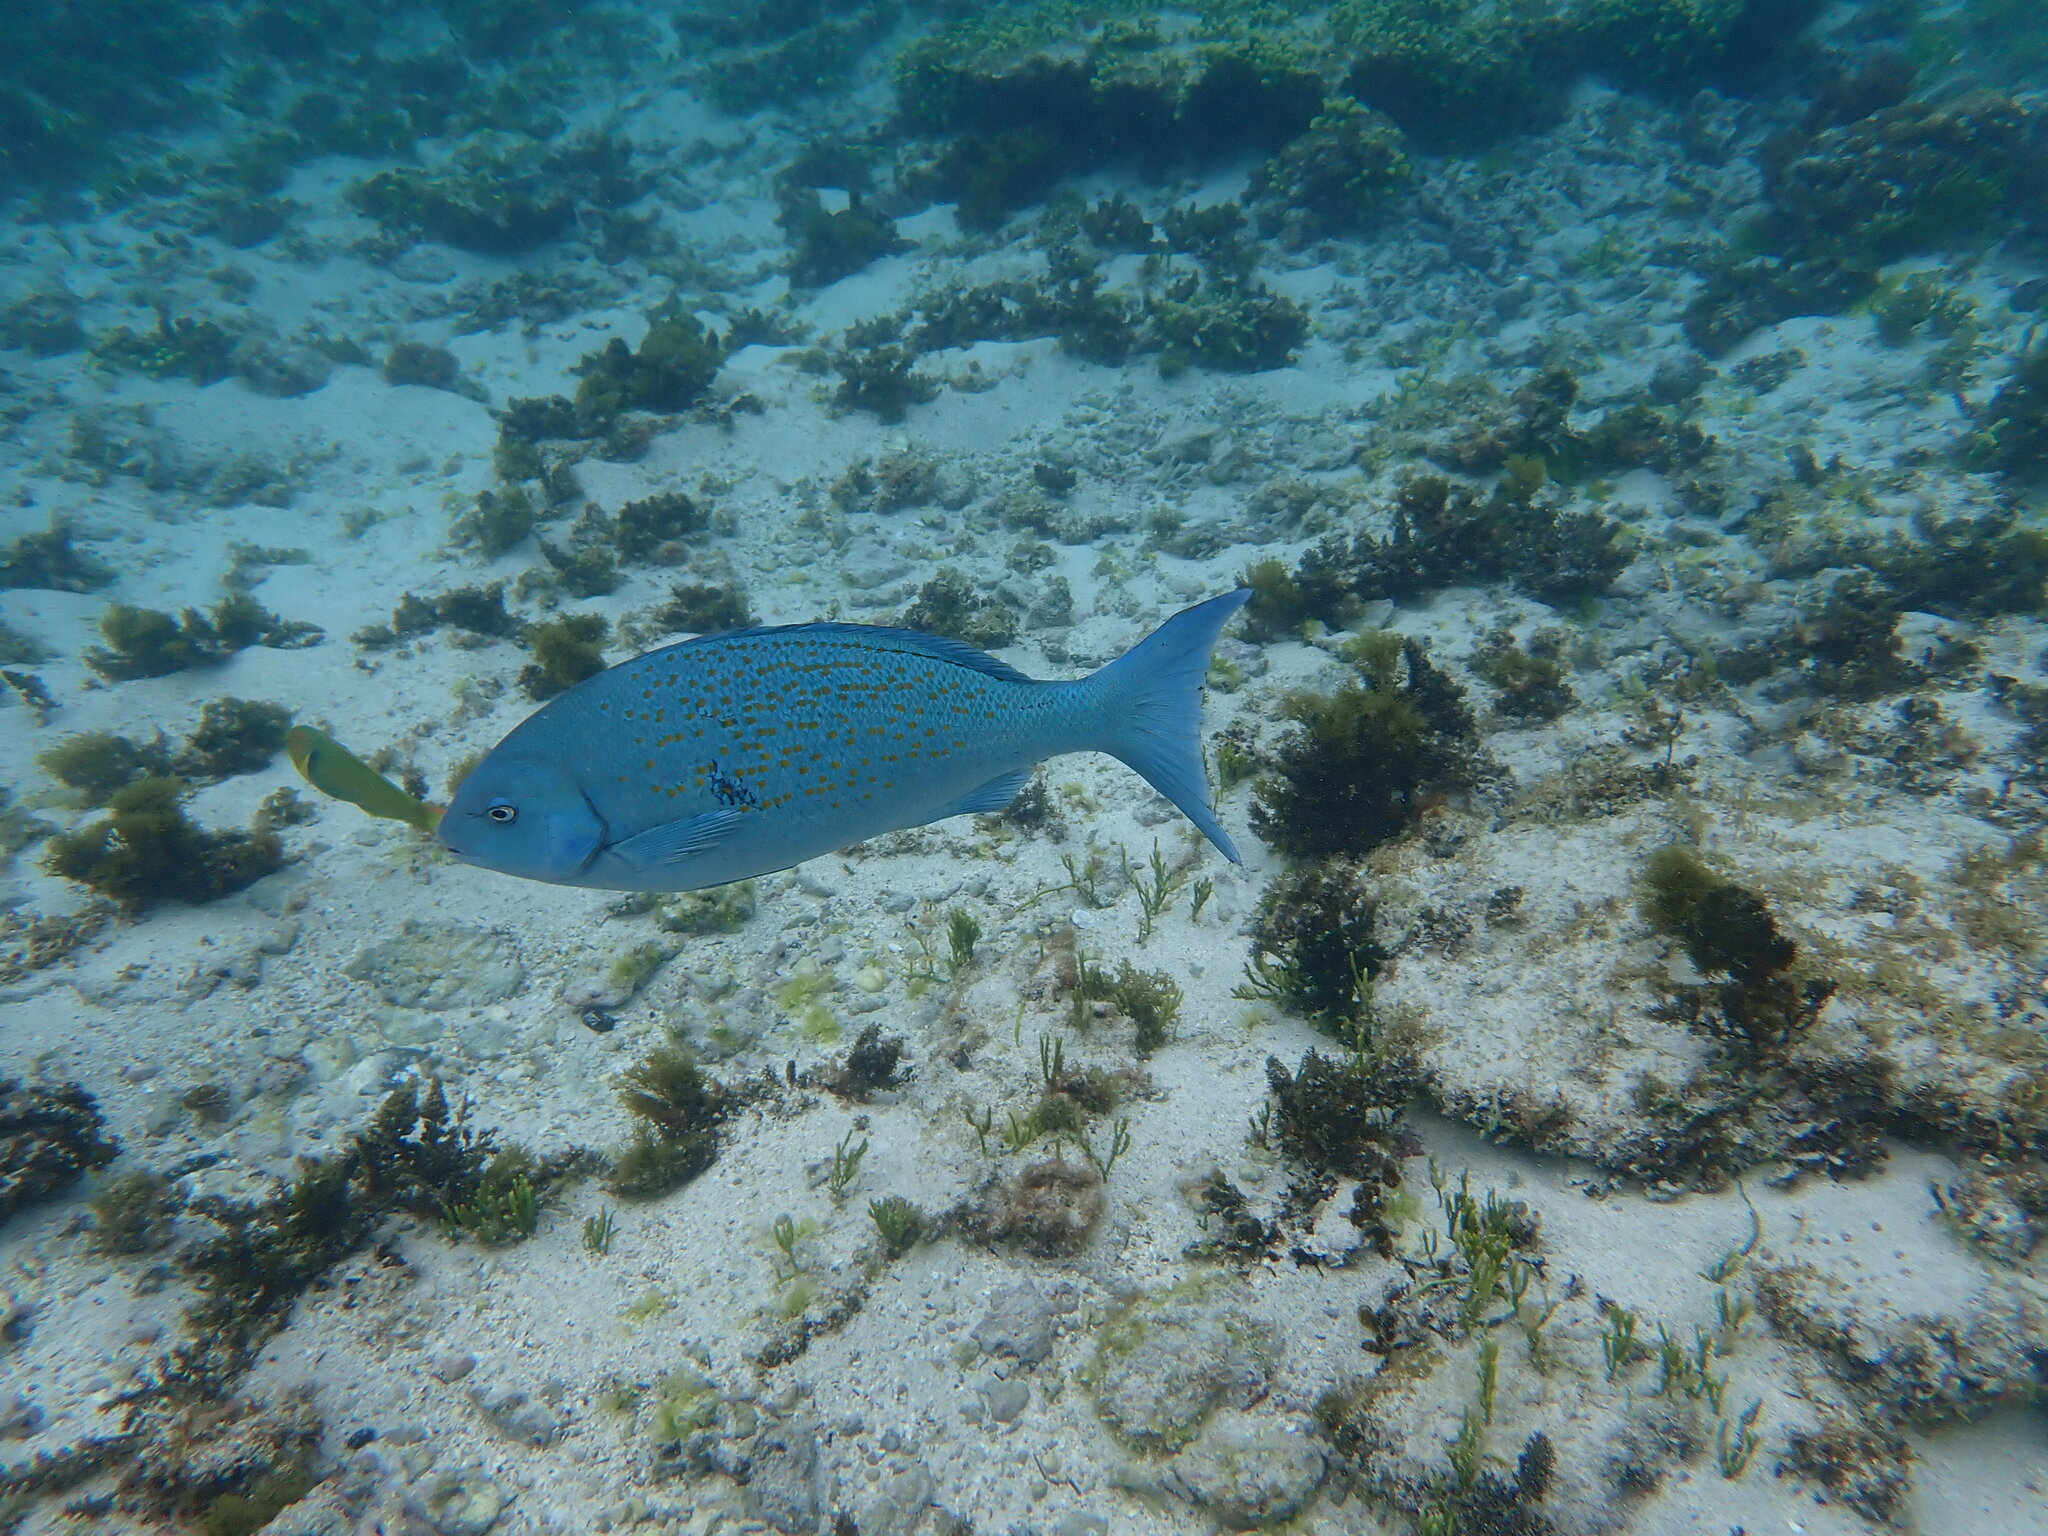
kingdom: Animalia
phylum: Chordata
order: Perciformes
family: Kyphosidae
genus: Girella
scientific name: Girella cyanea
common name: Bluefish
